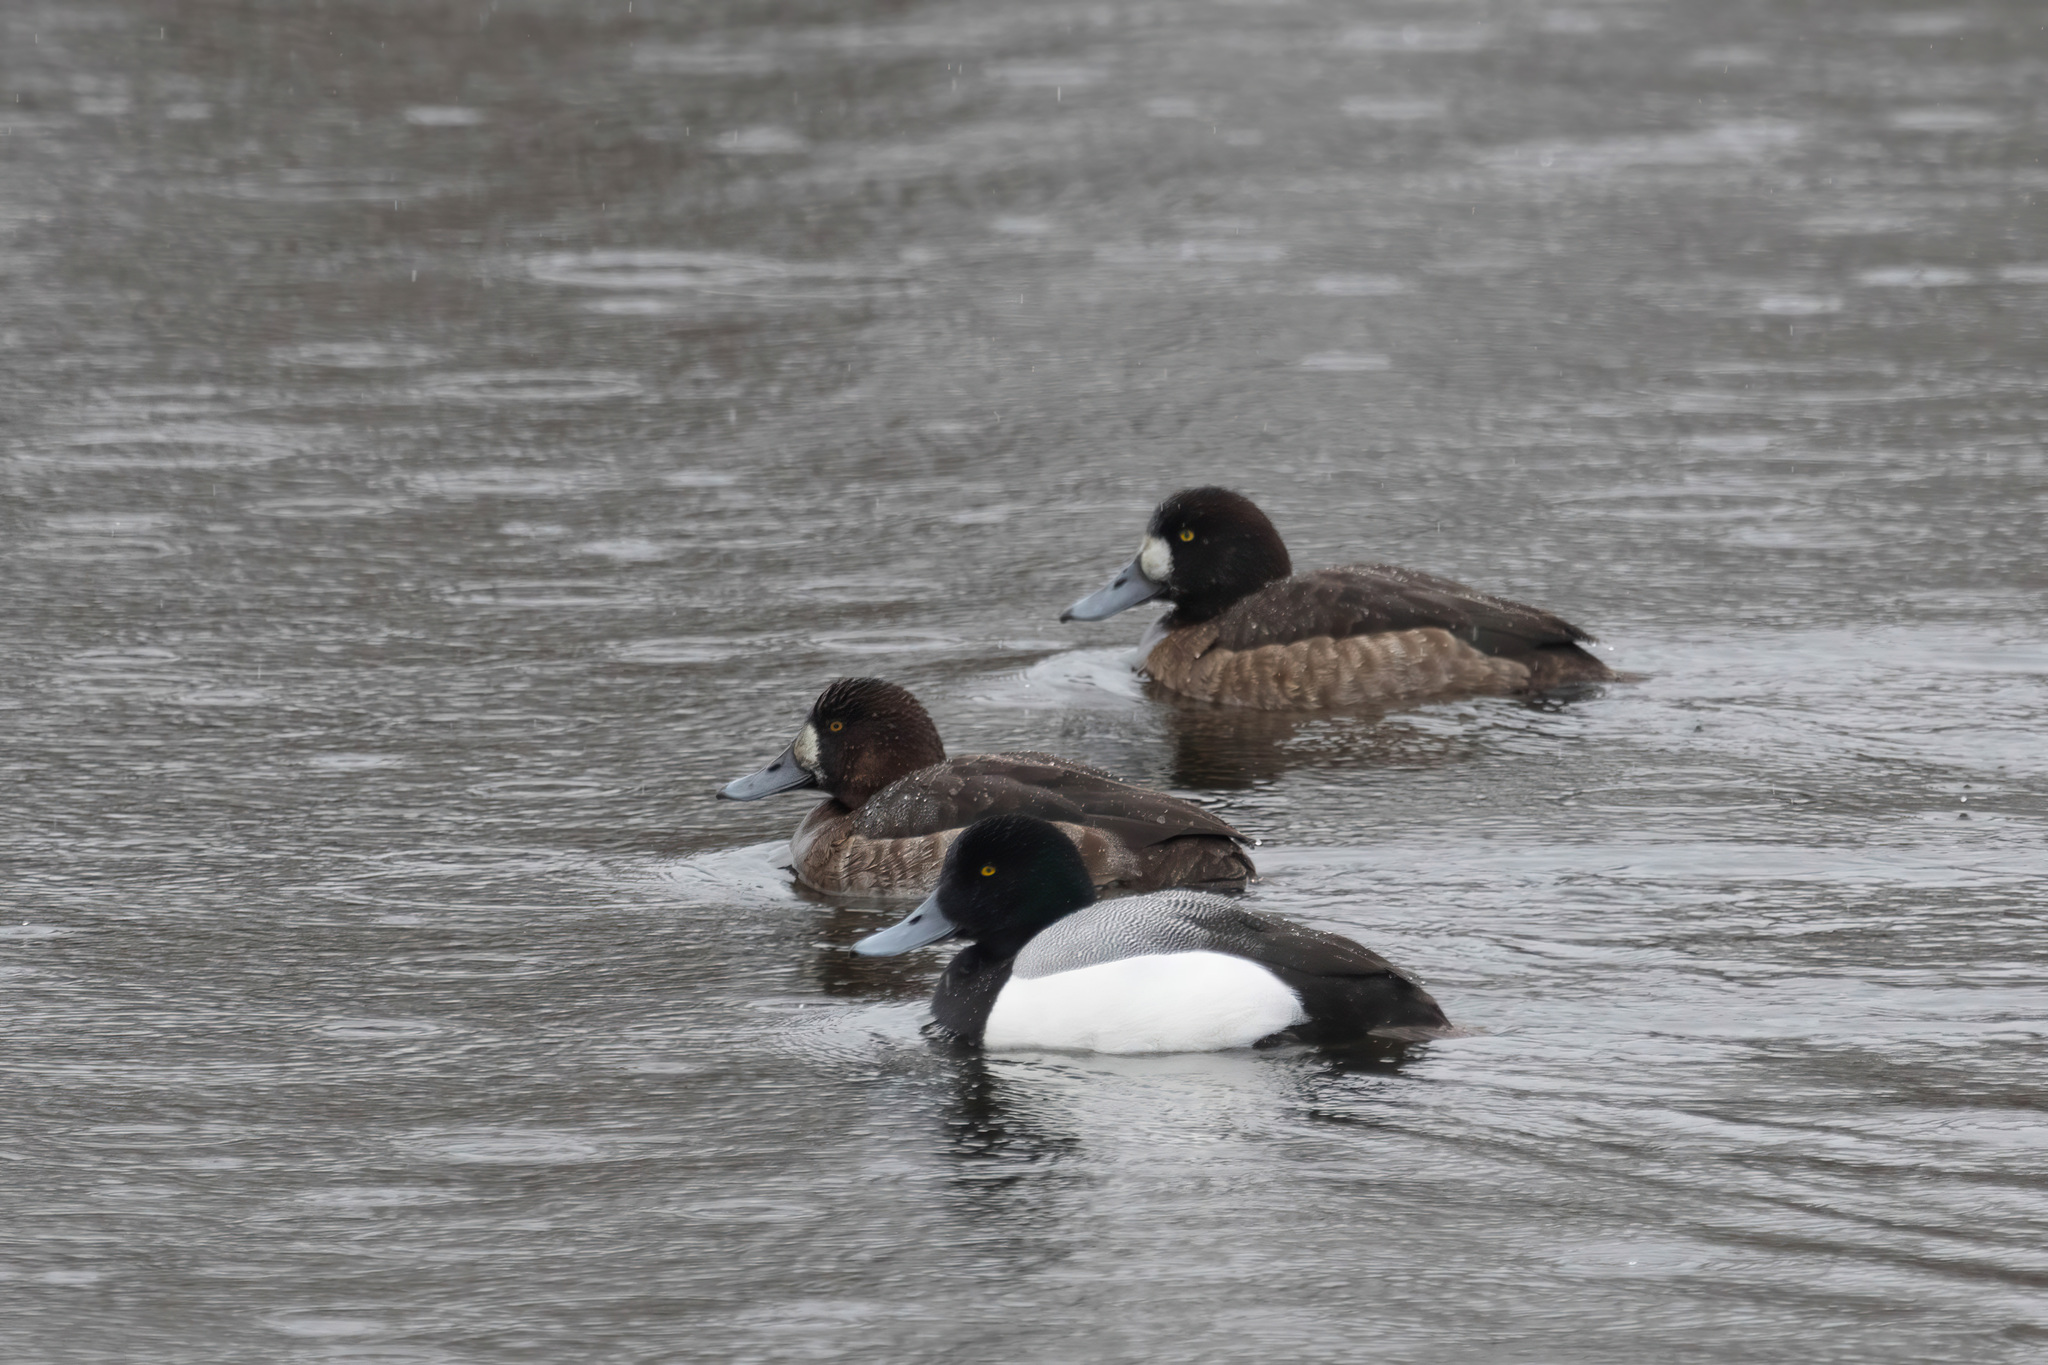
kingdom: Animalia
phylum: Chordata
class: Aves
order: Anseriformes
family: Anatidae
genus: Aythya
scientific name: Aythya marila
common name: Greater scaup
